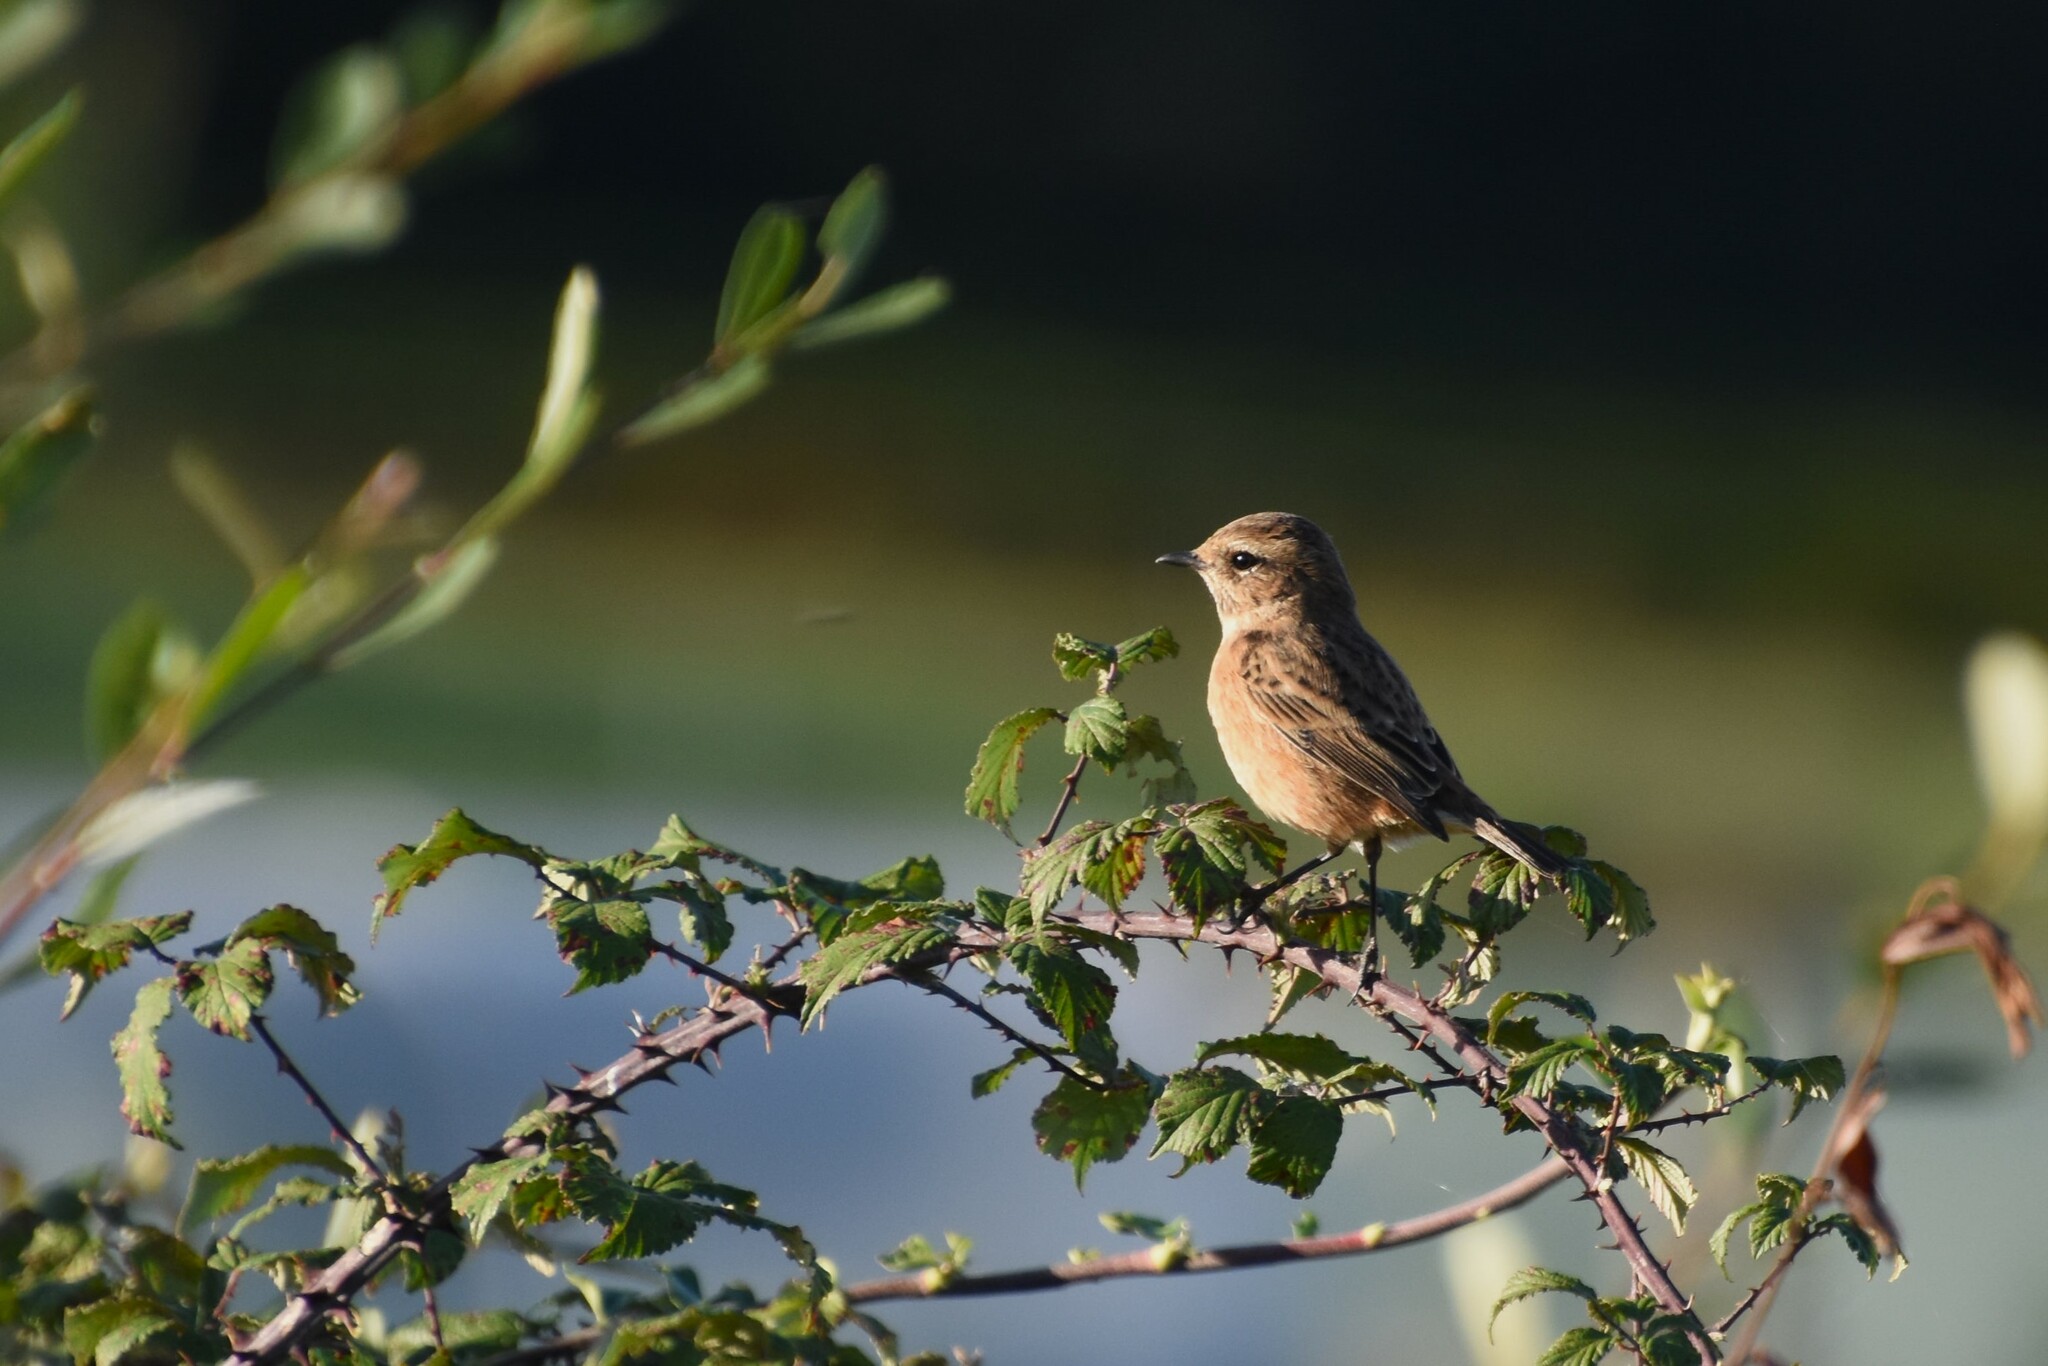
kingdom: Animalia
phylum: Chordata
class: Aves
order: Passeriformes
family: Muscicapidae
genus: Saxicola
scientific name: Saxicola rubicola
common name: European stonechat
